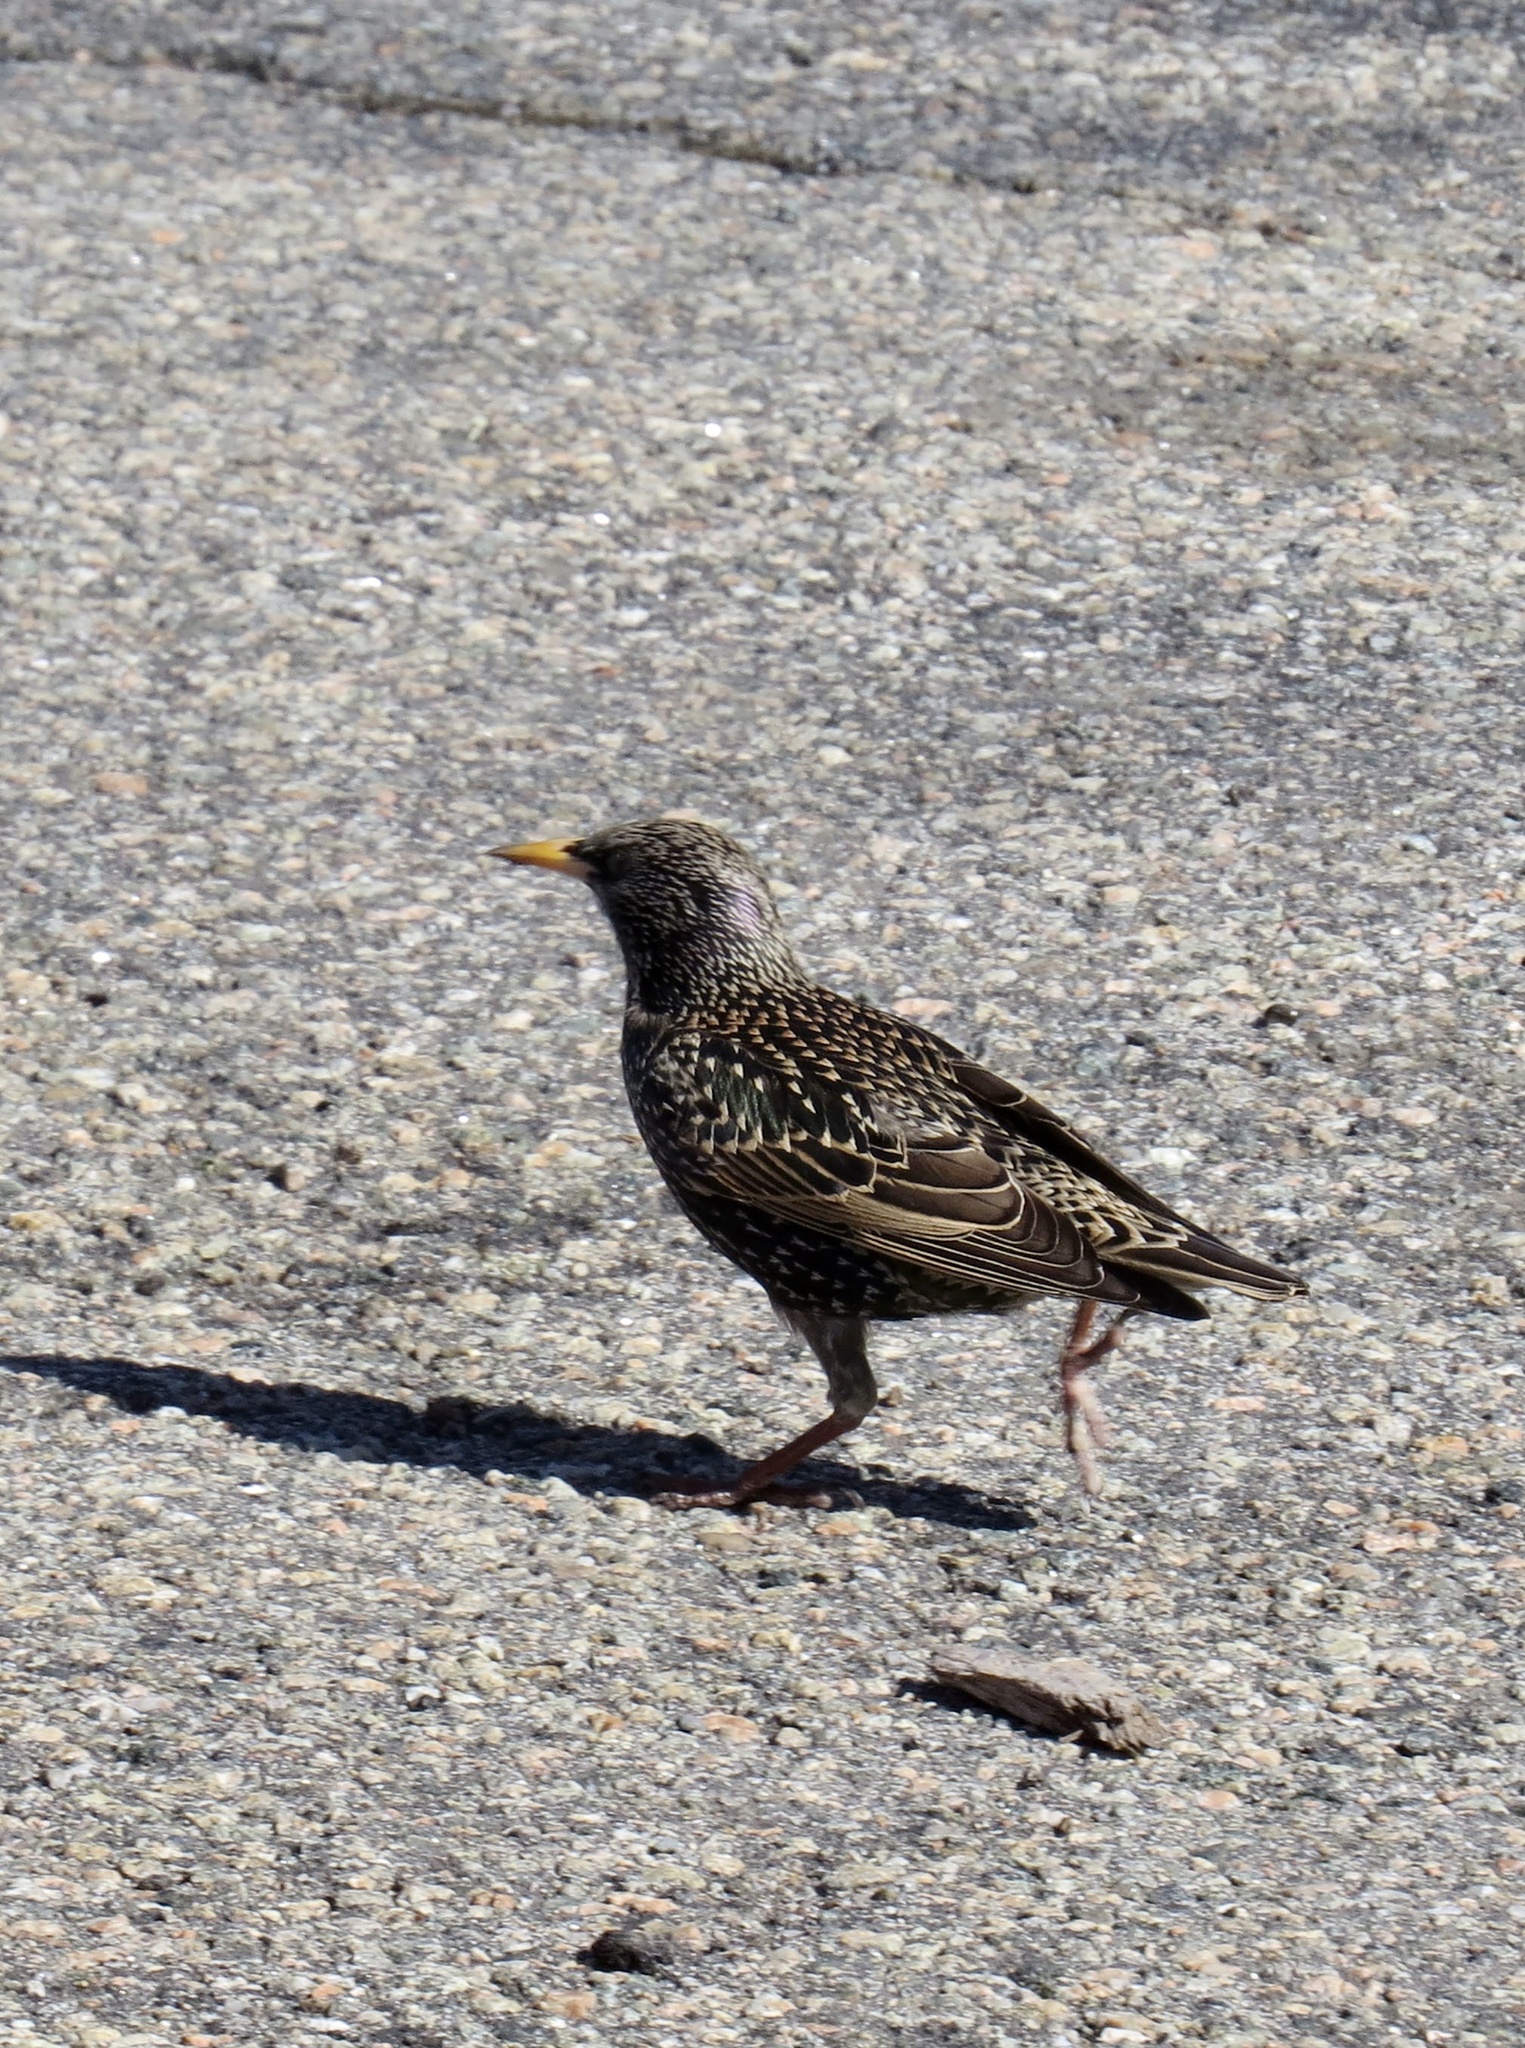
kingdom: Animalia
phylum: Chordata
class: Aves
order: Passeriformes
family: Sturnidae
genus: Sturnus
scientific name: Sturnus vulgaris
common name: Common starling
